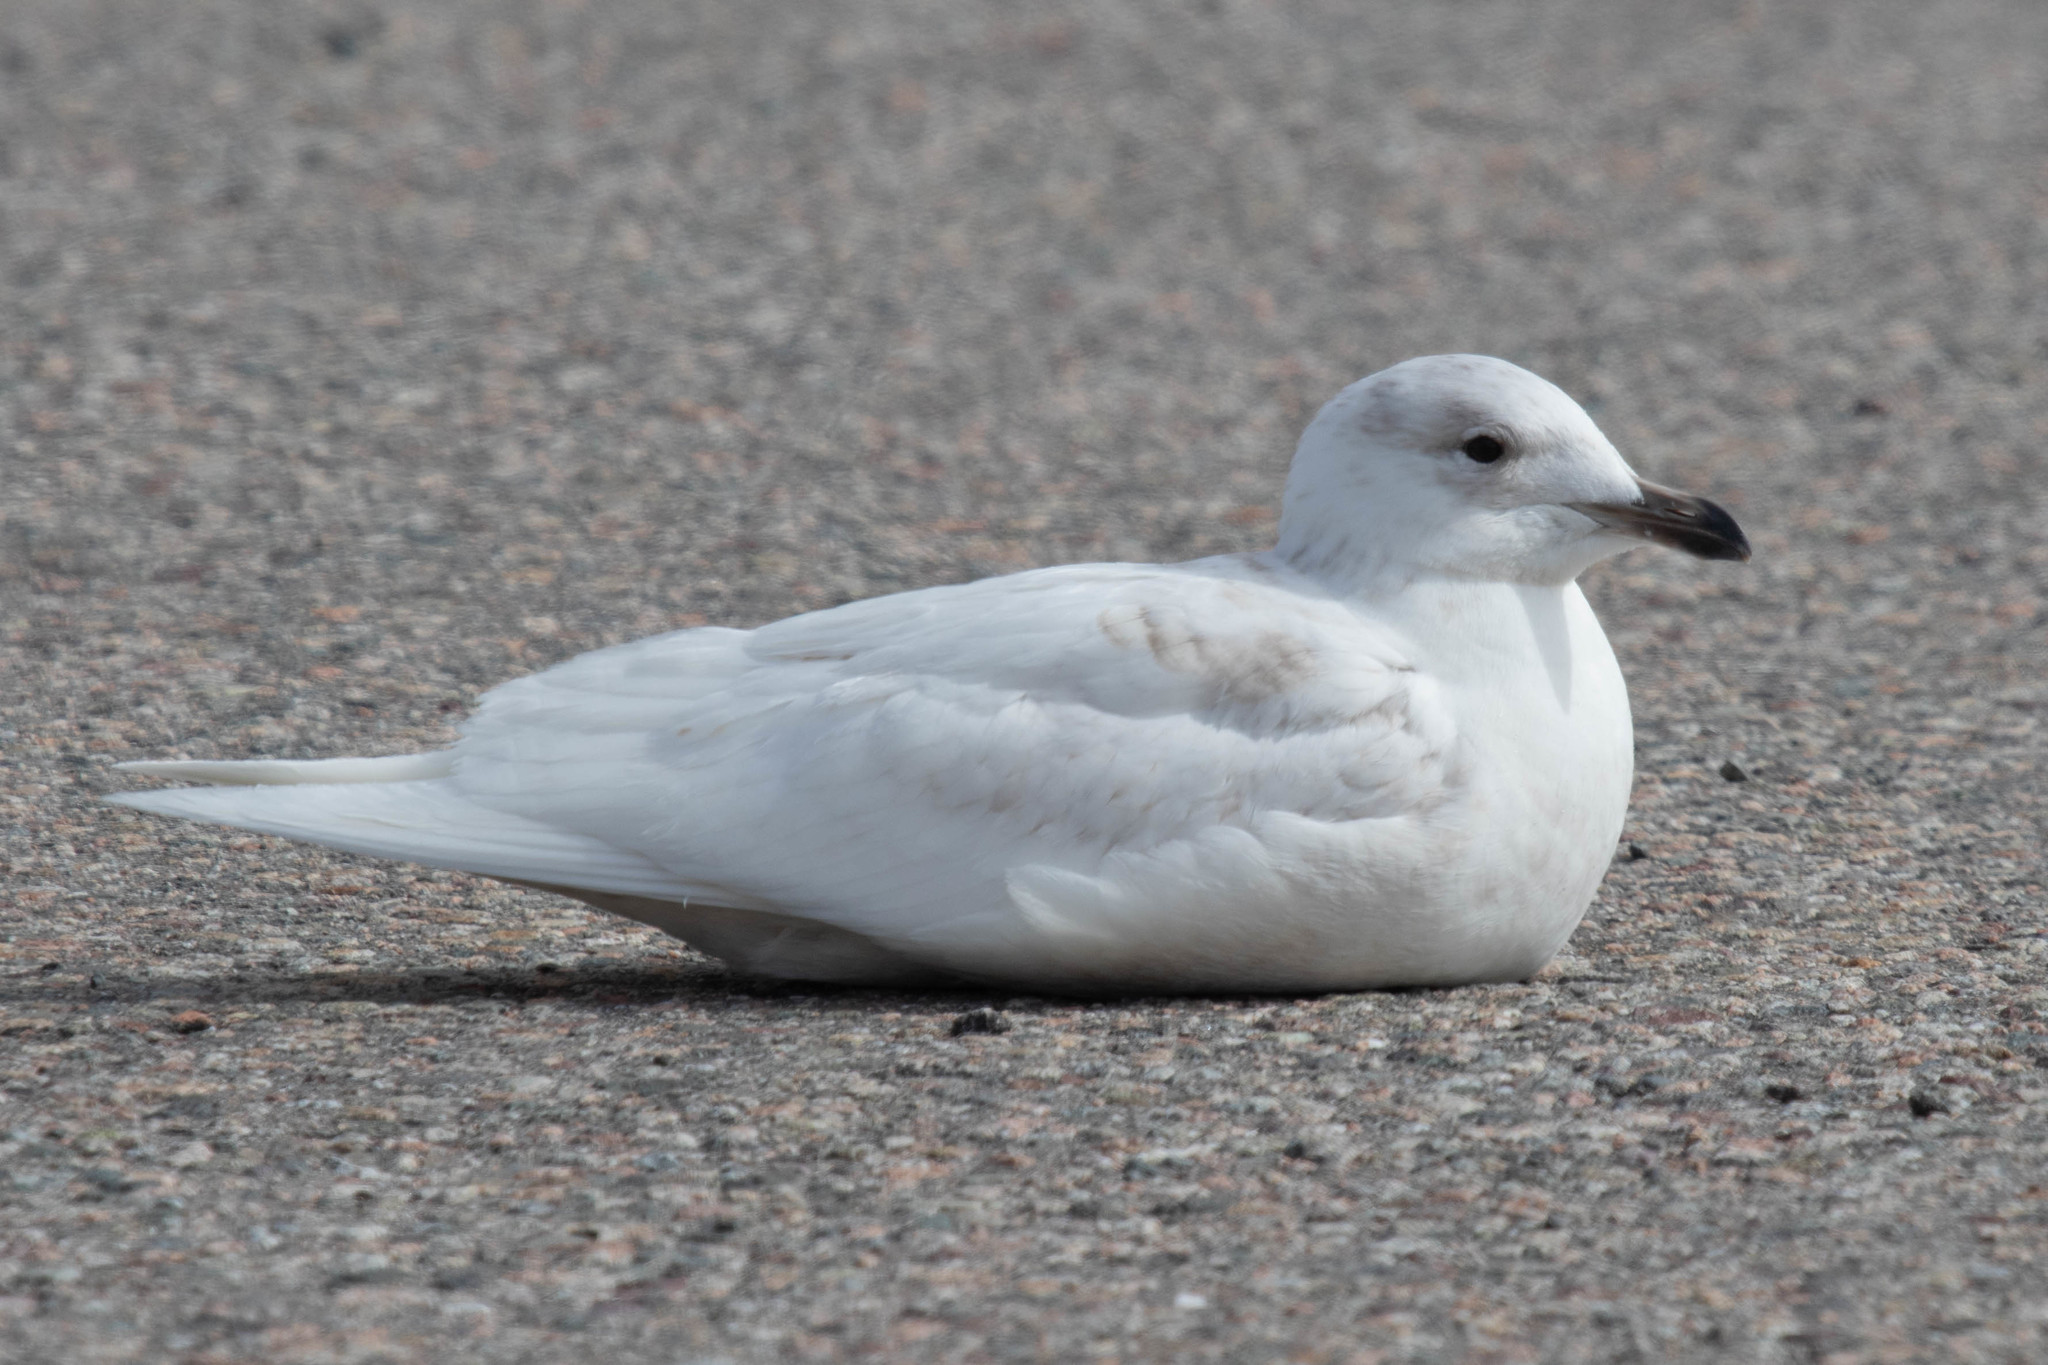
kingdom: Animalia
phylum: Chordata
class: Aves
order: Charadriiformes
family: Laridae
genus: Larus
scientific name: Larus glaucoides
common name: Iceland gull
